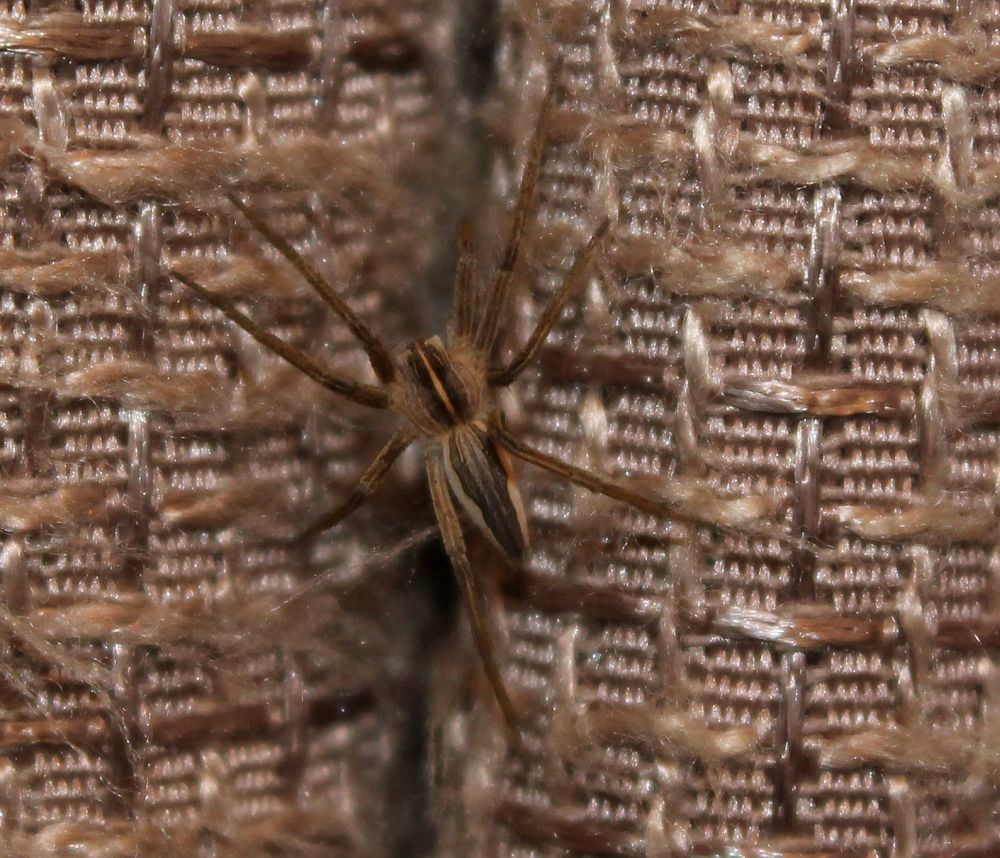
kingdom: Animalia
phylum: Arthropoda
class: Arachnida
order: Araneae
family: Pisauridae
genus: Pisaura
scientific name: Pisaura mirabilis
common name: Tent spider
